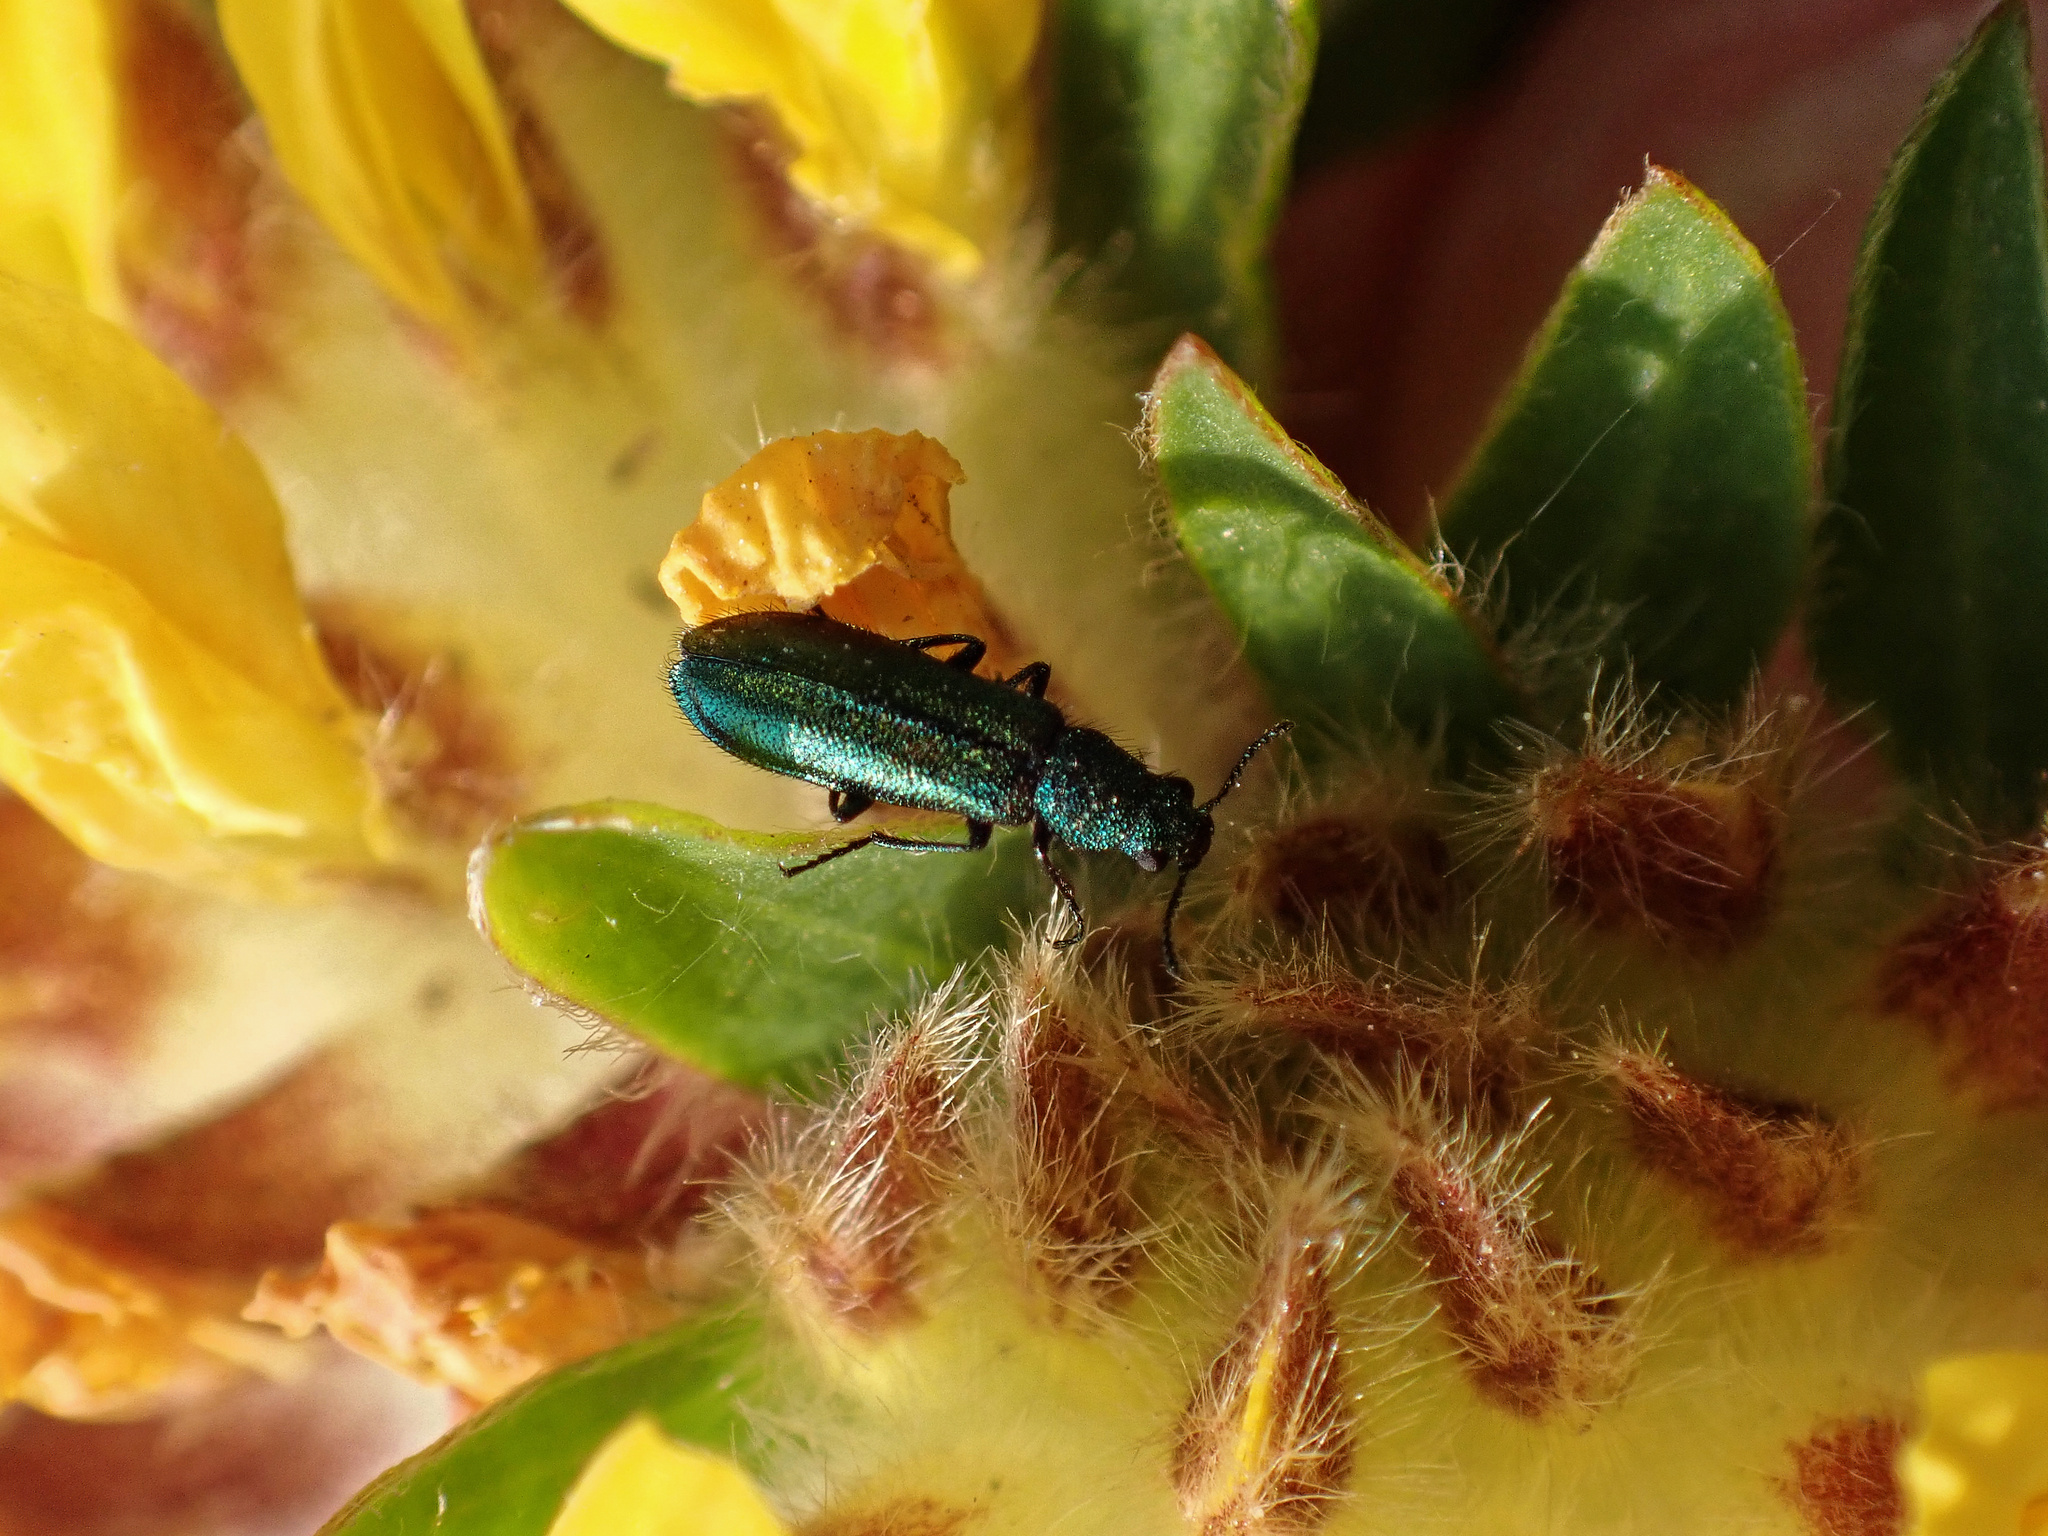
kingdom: Animalia
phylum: Arthropoda
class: Insecta
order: Coleoptera
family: Dasytidae
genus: Psilothrix
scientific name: Psilothrix viridicoerulea
